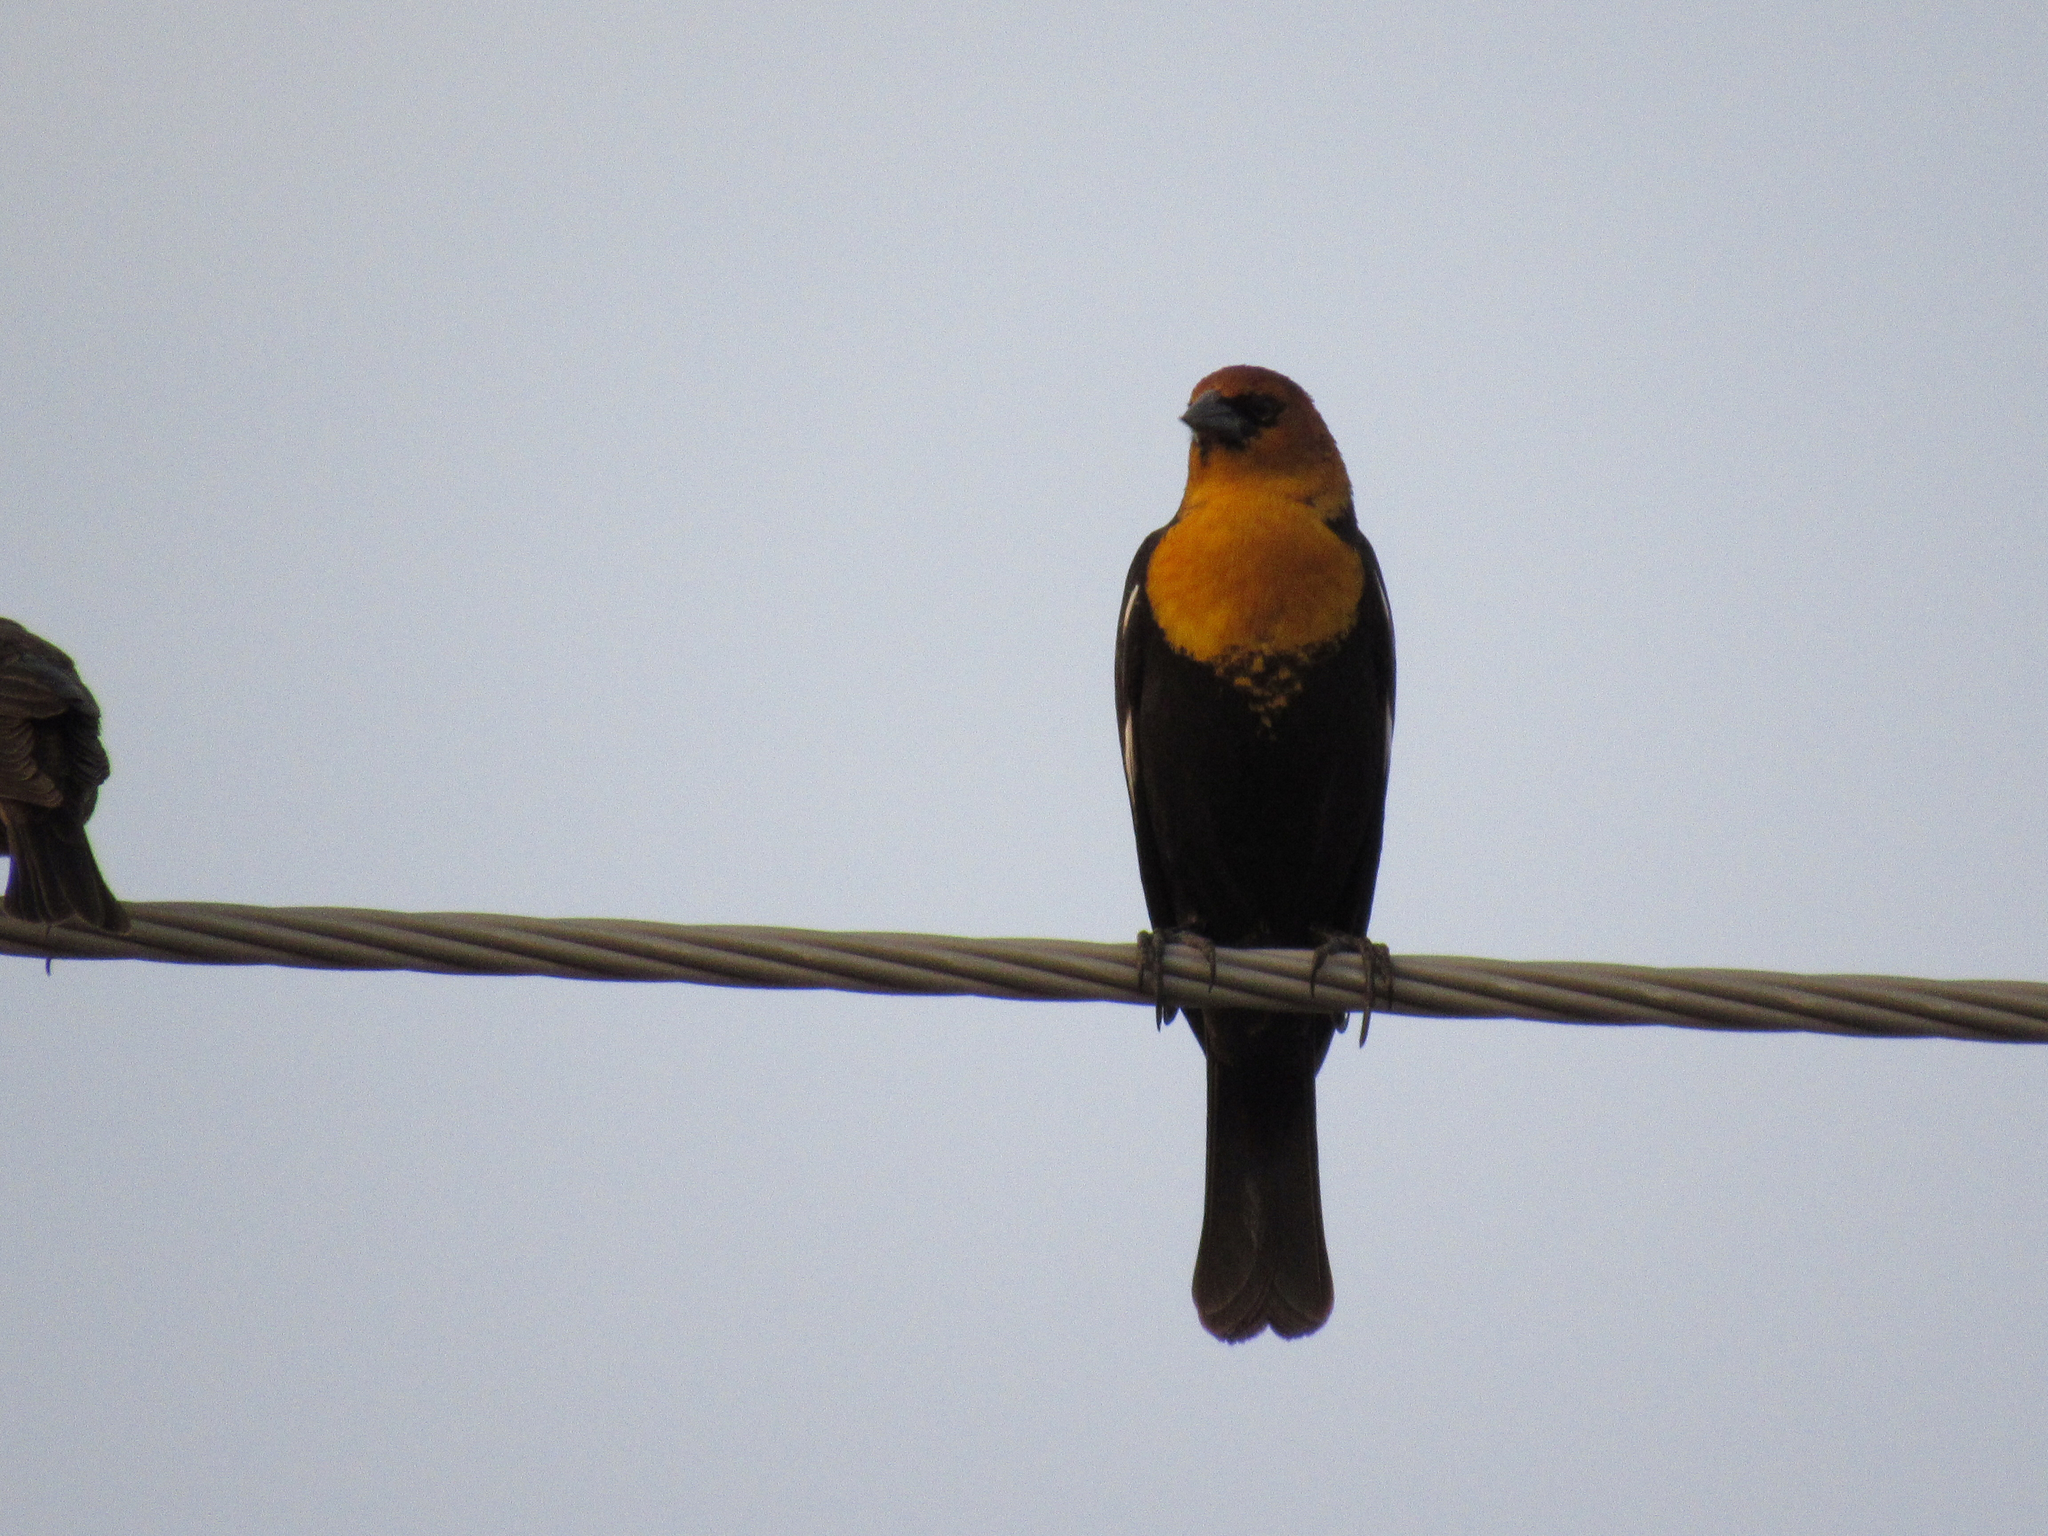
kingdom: Animalia
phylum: Chordata
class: Aves
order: Passeriformes
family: Icteridae
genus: Xanthocephalus
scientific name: Xanthocephalus xanthocephalus
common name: Yellow-headed blackbird
